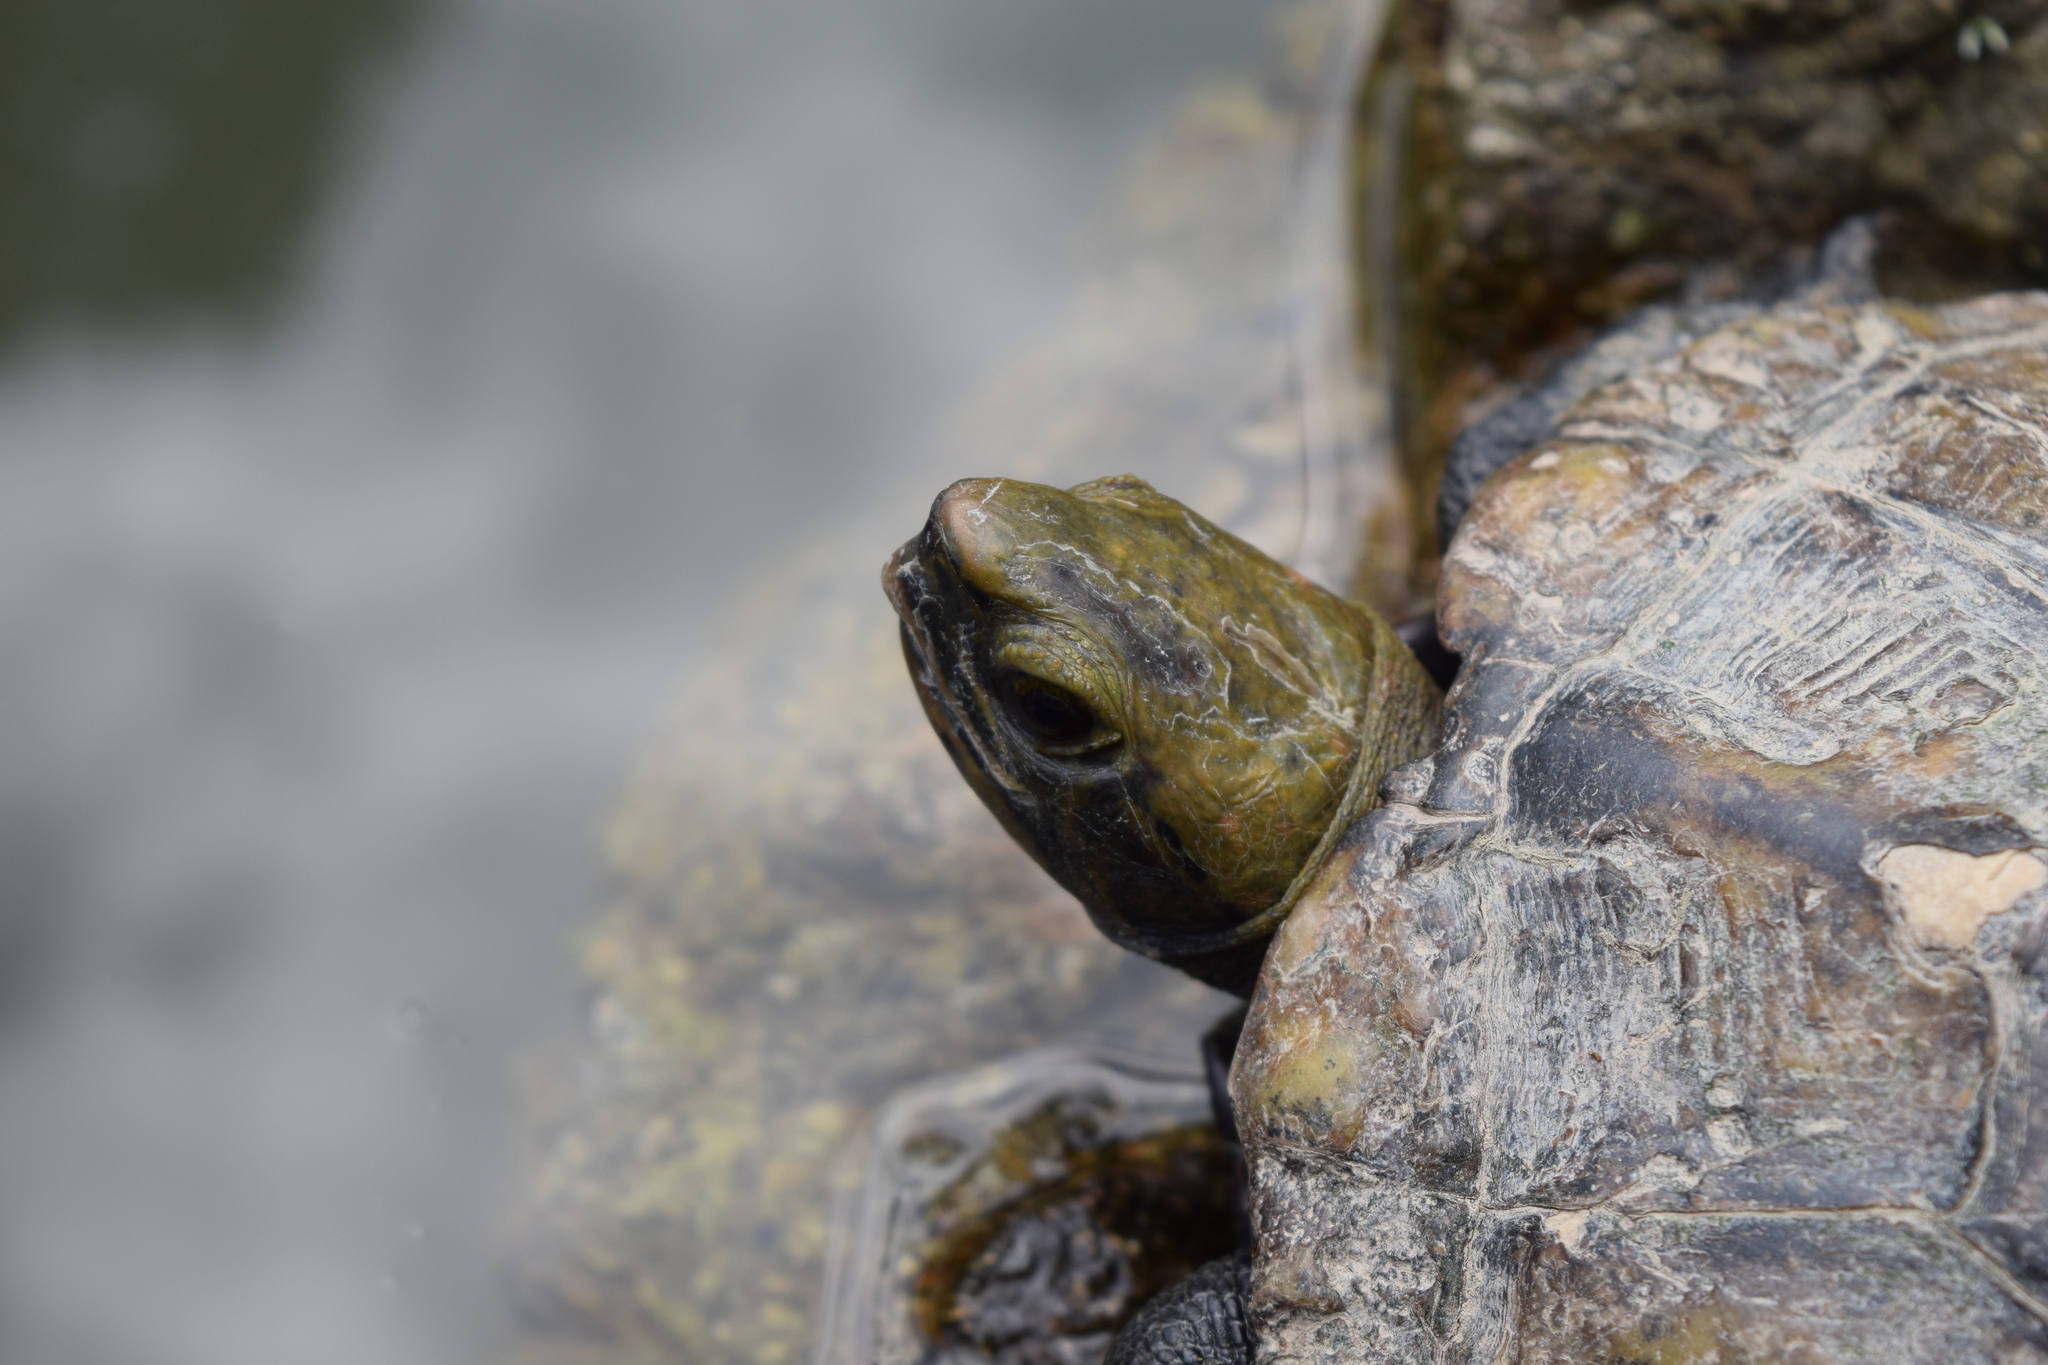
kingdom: Animalia
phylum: Chordata
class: Testudines
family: Geoemydidae
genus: Mauremys
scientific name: Mauremys japonica
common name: Japanese pond turtle
